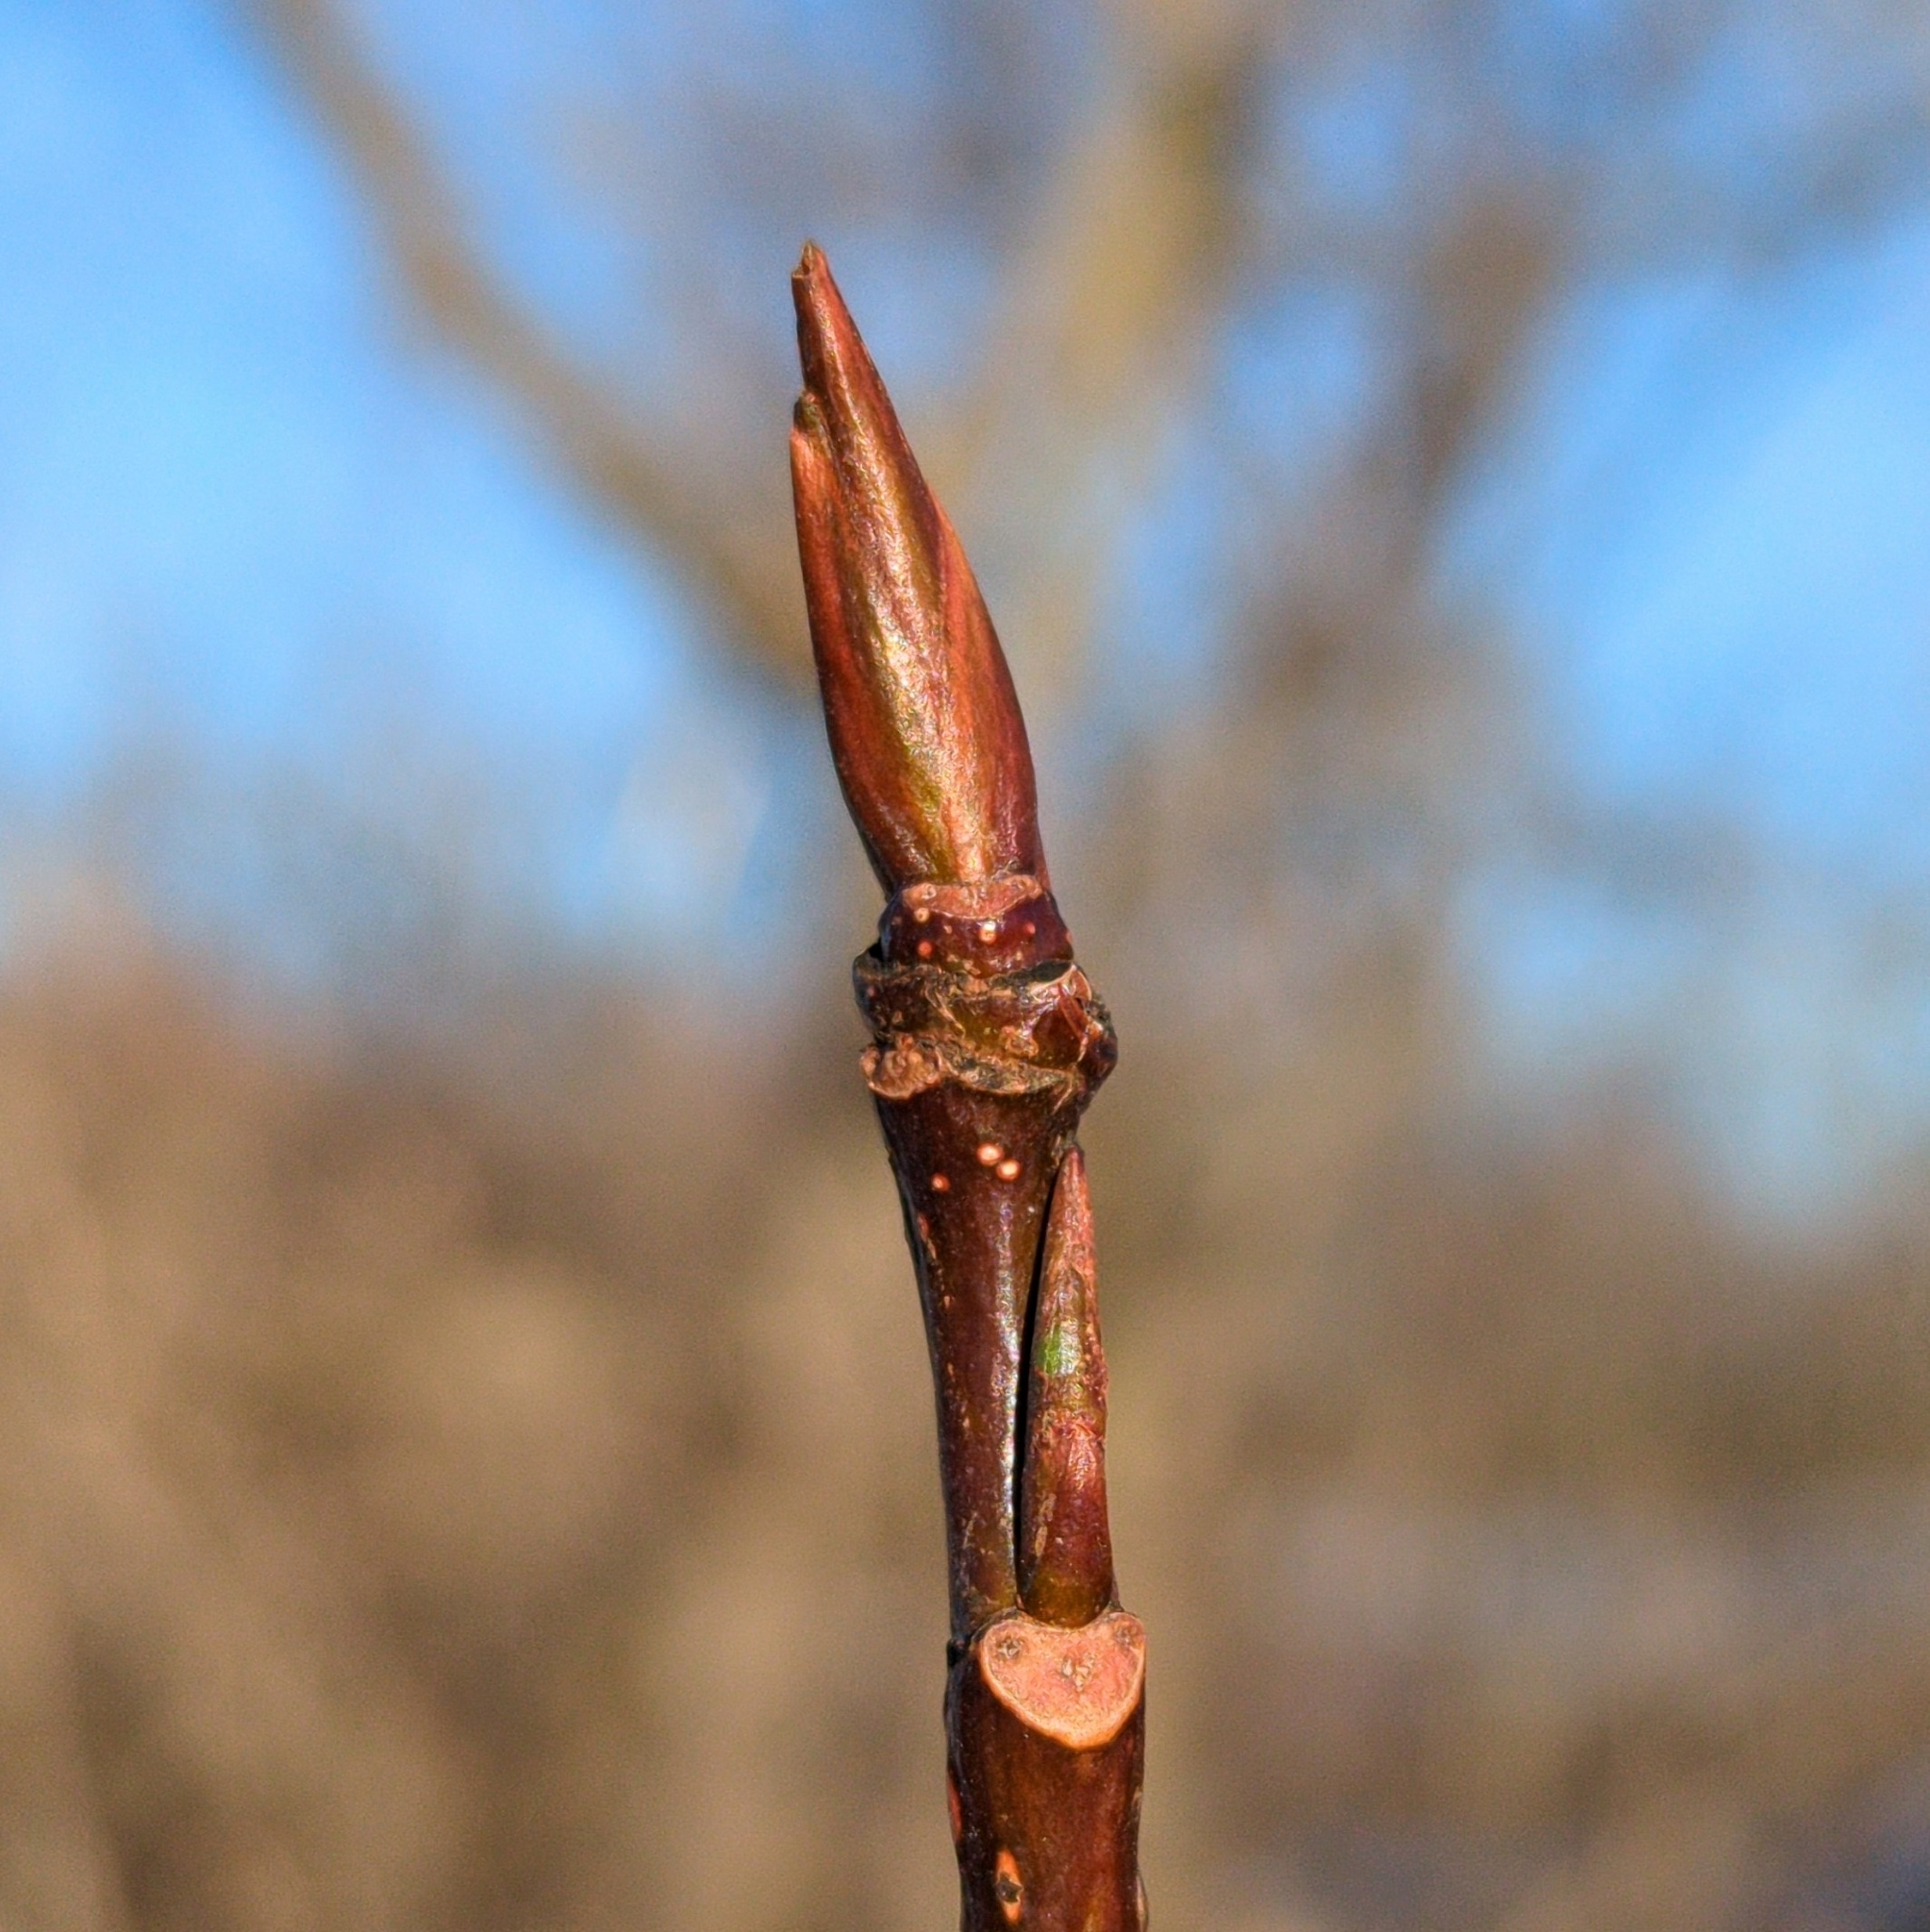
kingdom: Plantae
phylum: Tracheophyta
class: Magnoliopsida
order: Malpighiales
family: Salicaceae
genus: Populus
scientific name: Populus balsamifera
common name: Balsam poplar
